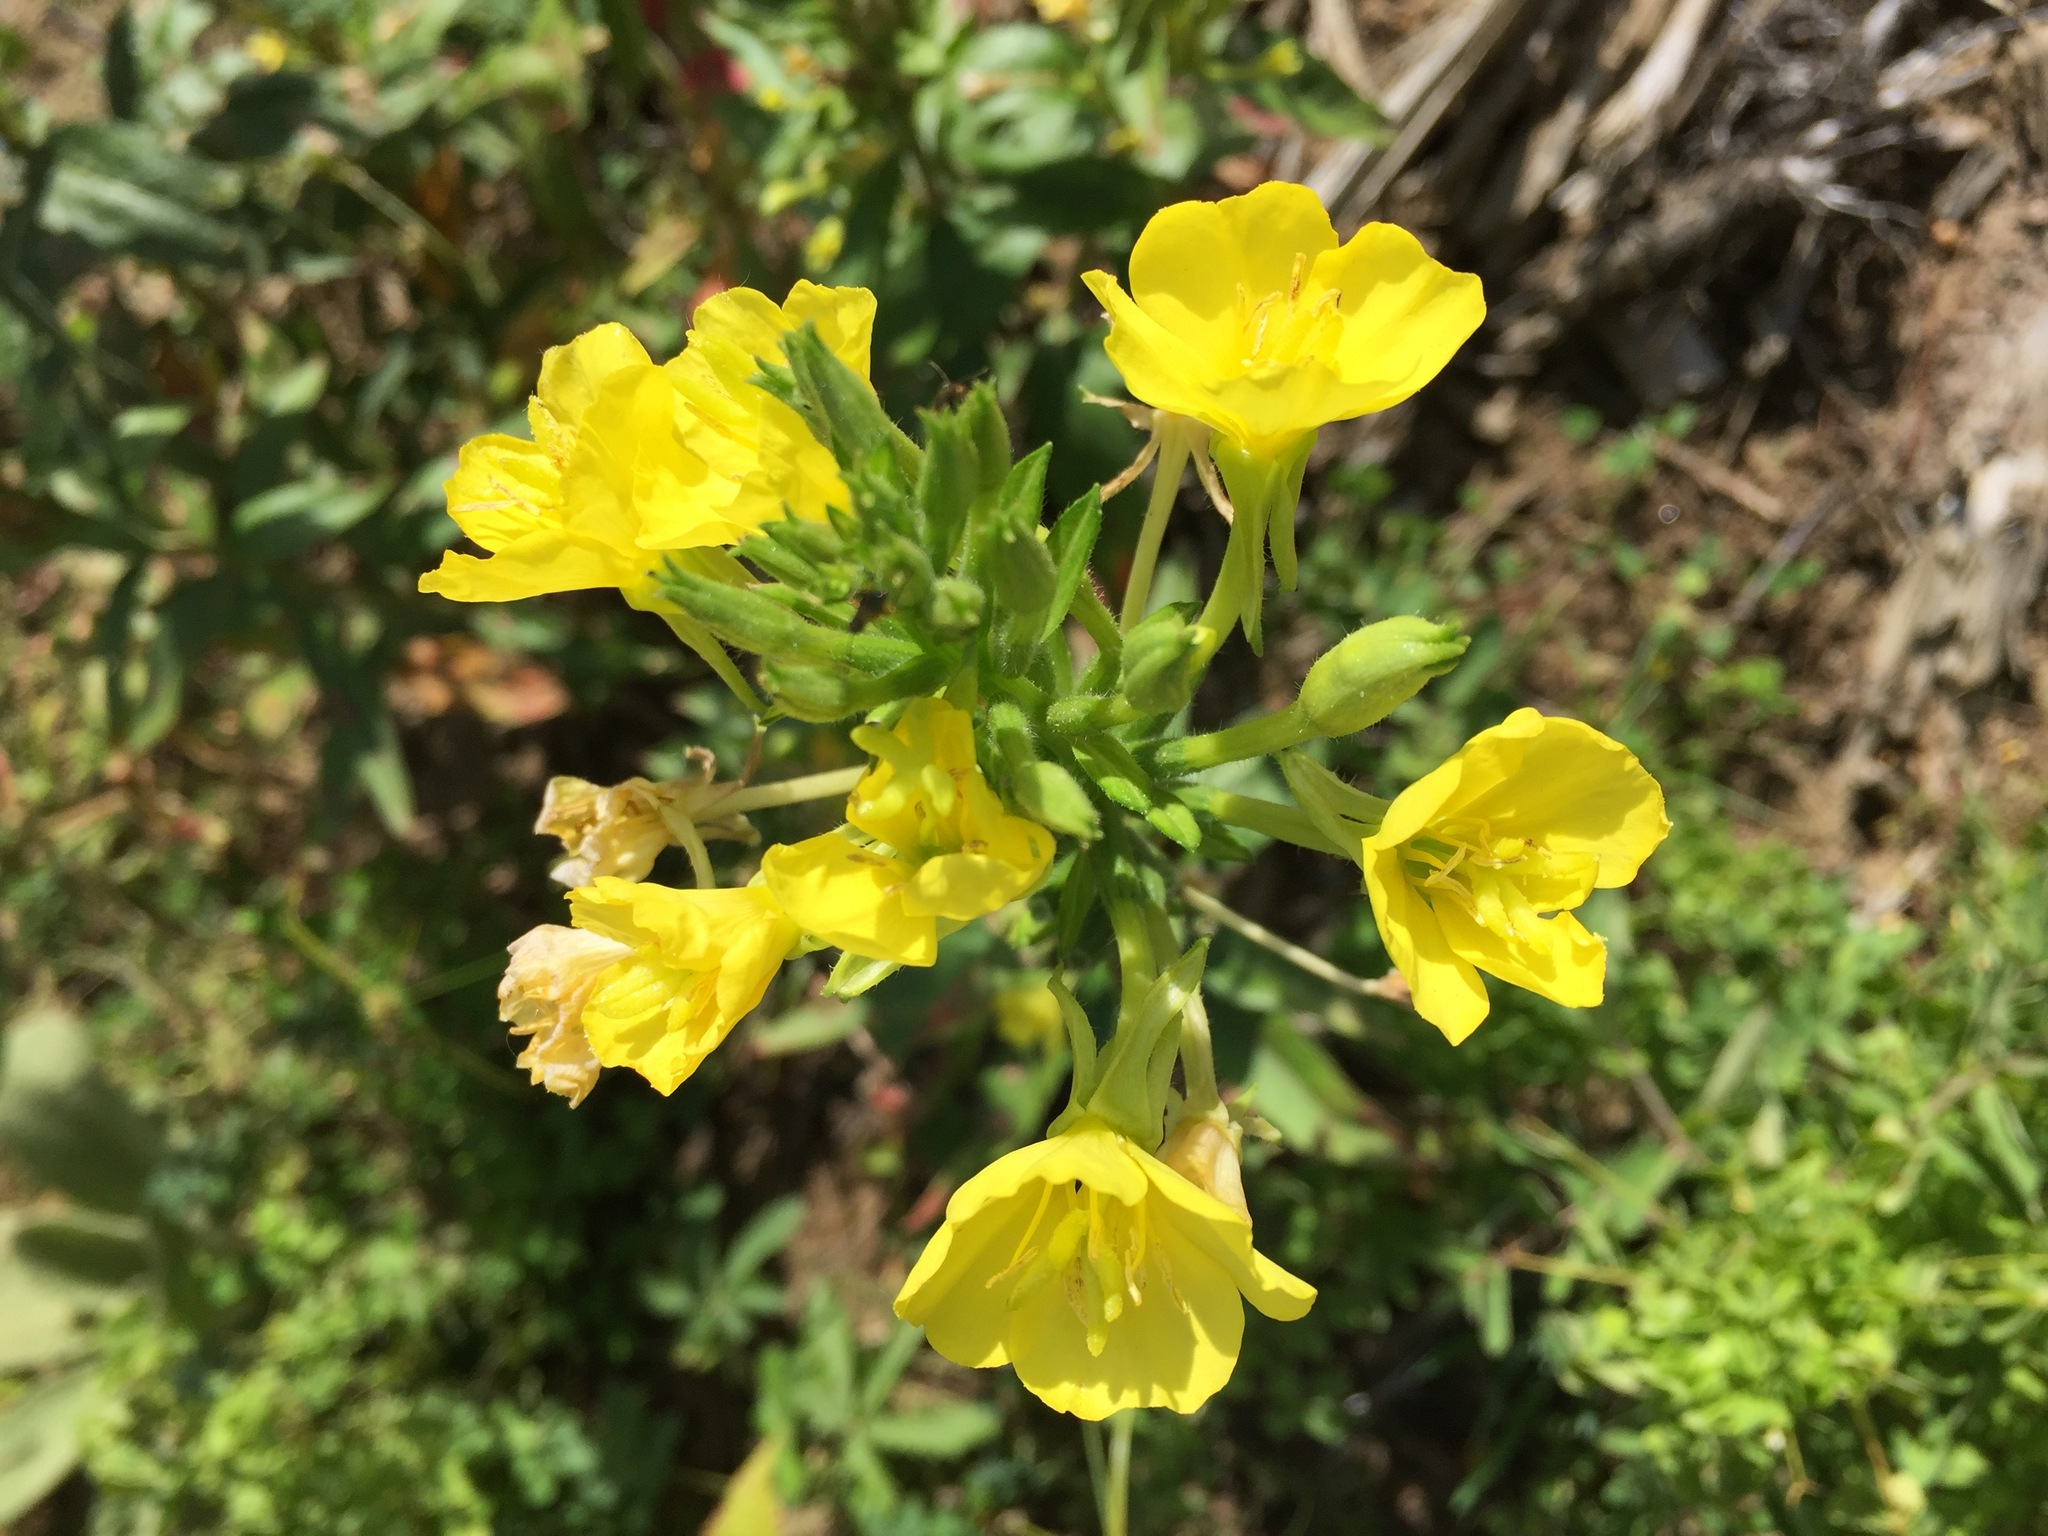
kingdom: Plantae
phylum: Tracheophyta
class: Magnoliopsida
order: Myrtales
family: Onagraceae
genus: Oenothera
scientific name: Oenothera biennis
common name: Common evening-primrose
